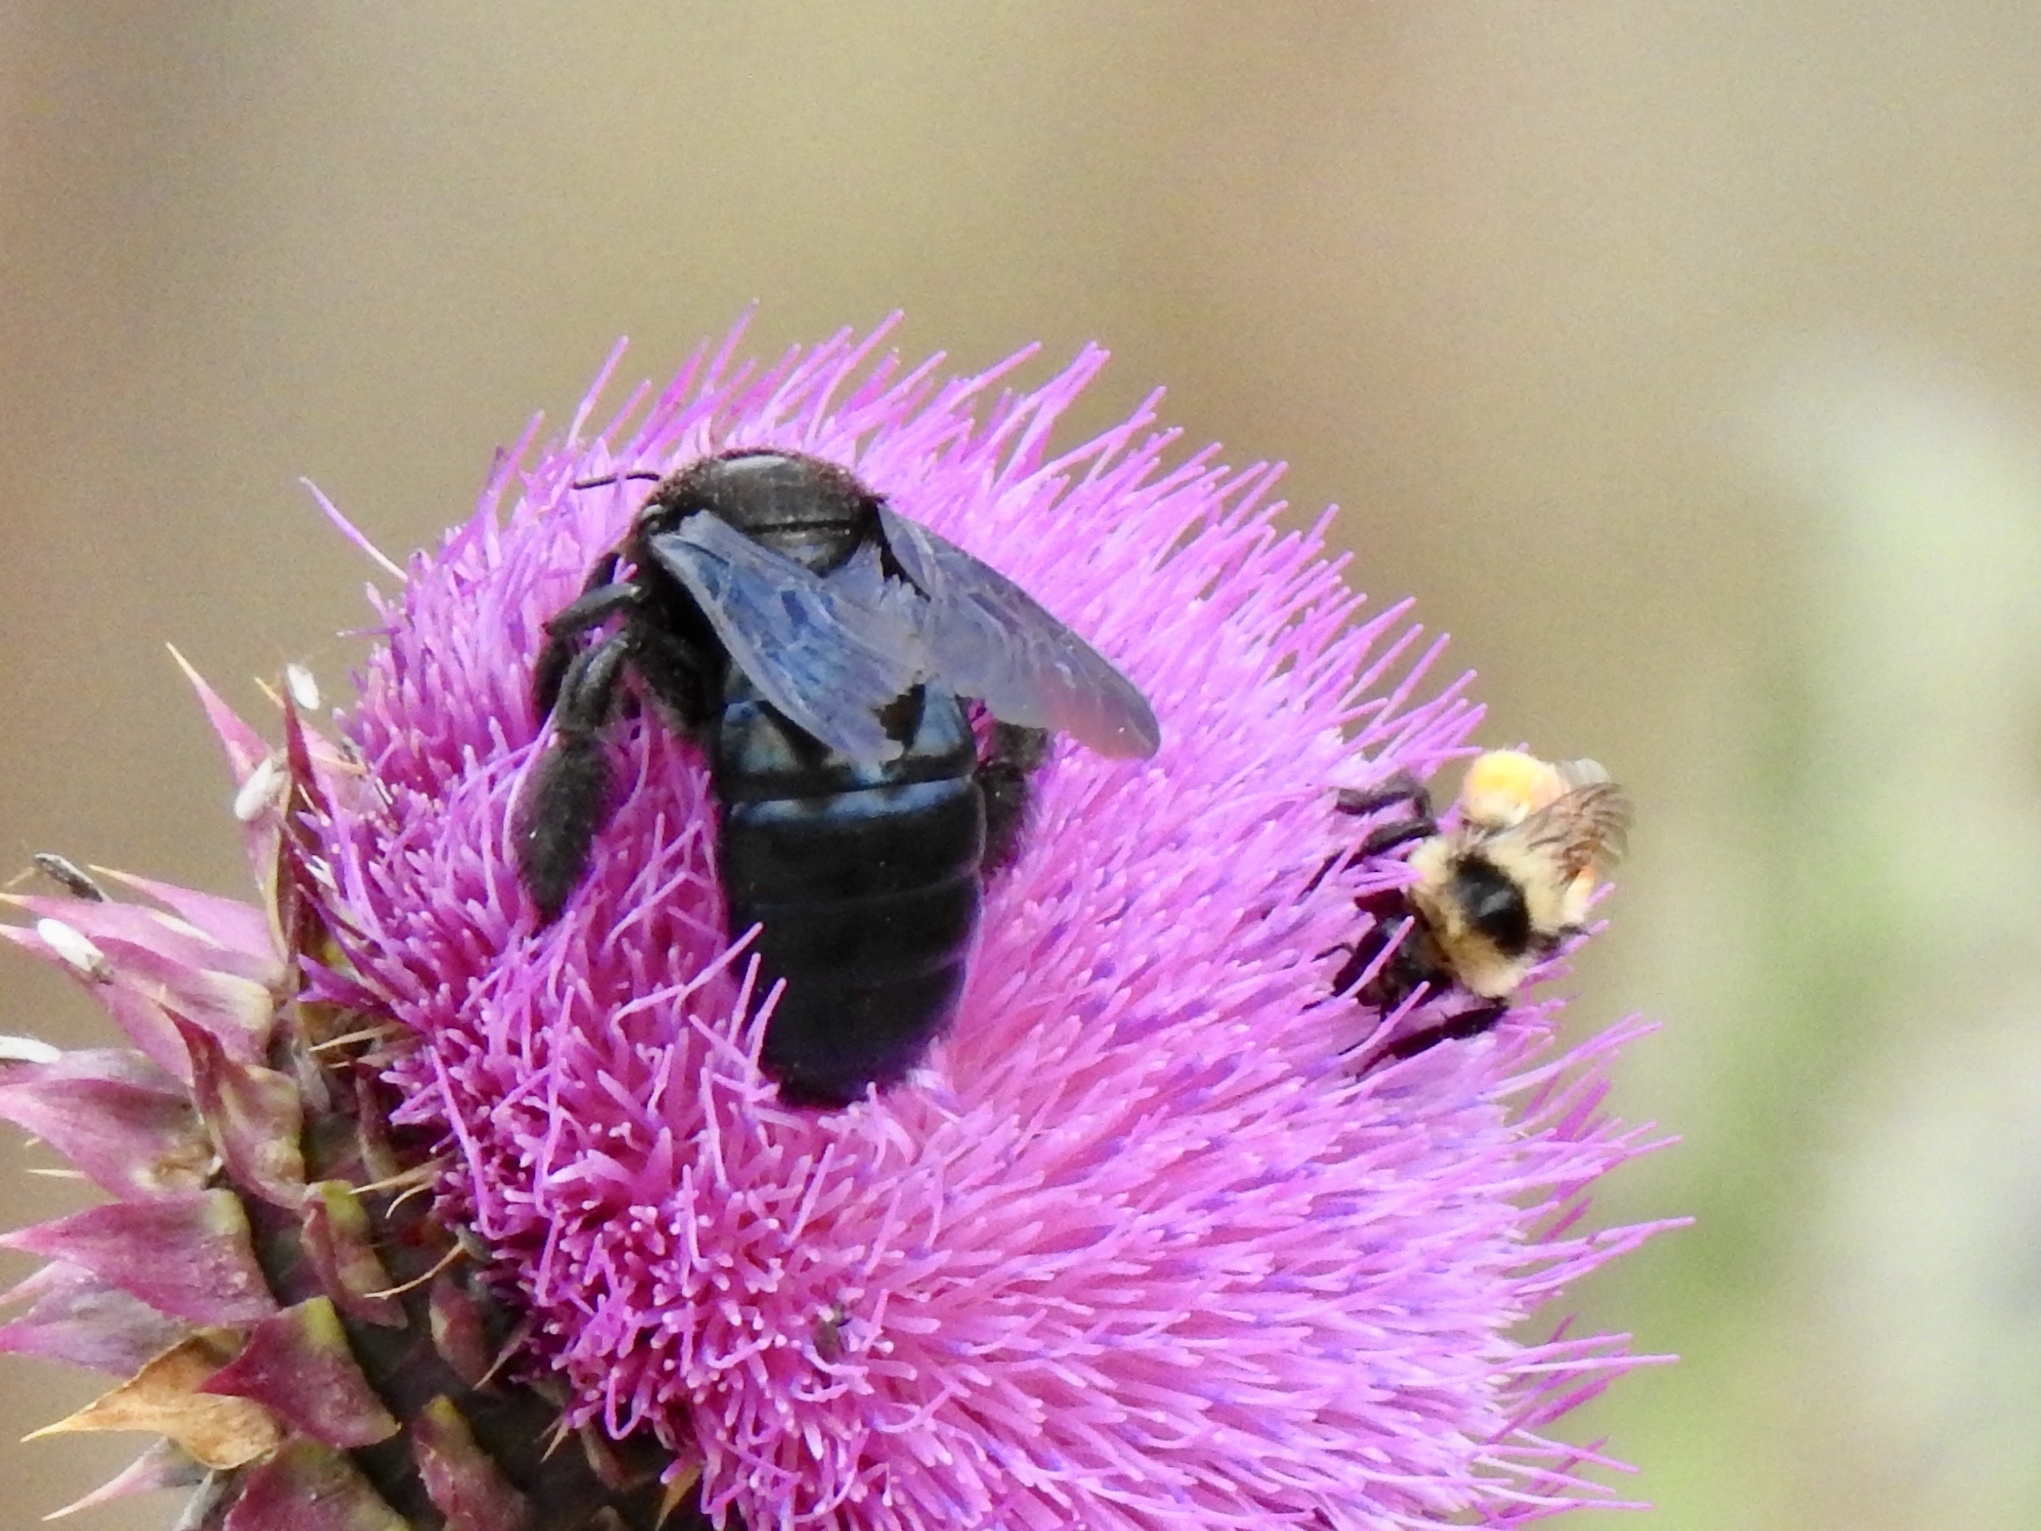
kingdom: Animalia
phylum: Arthropoda
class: Insecta
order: Hymenoptera
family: Apidae
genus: Xylocopa
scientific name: Xylocopa californica
